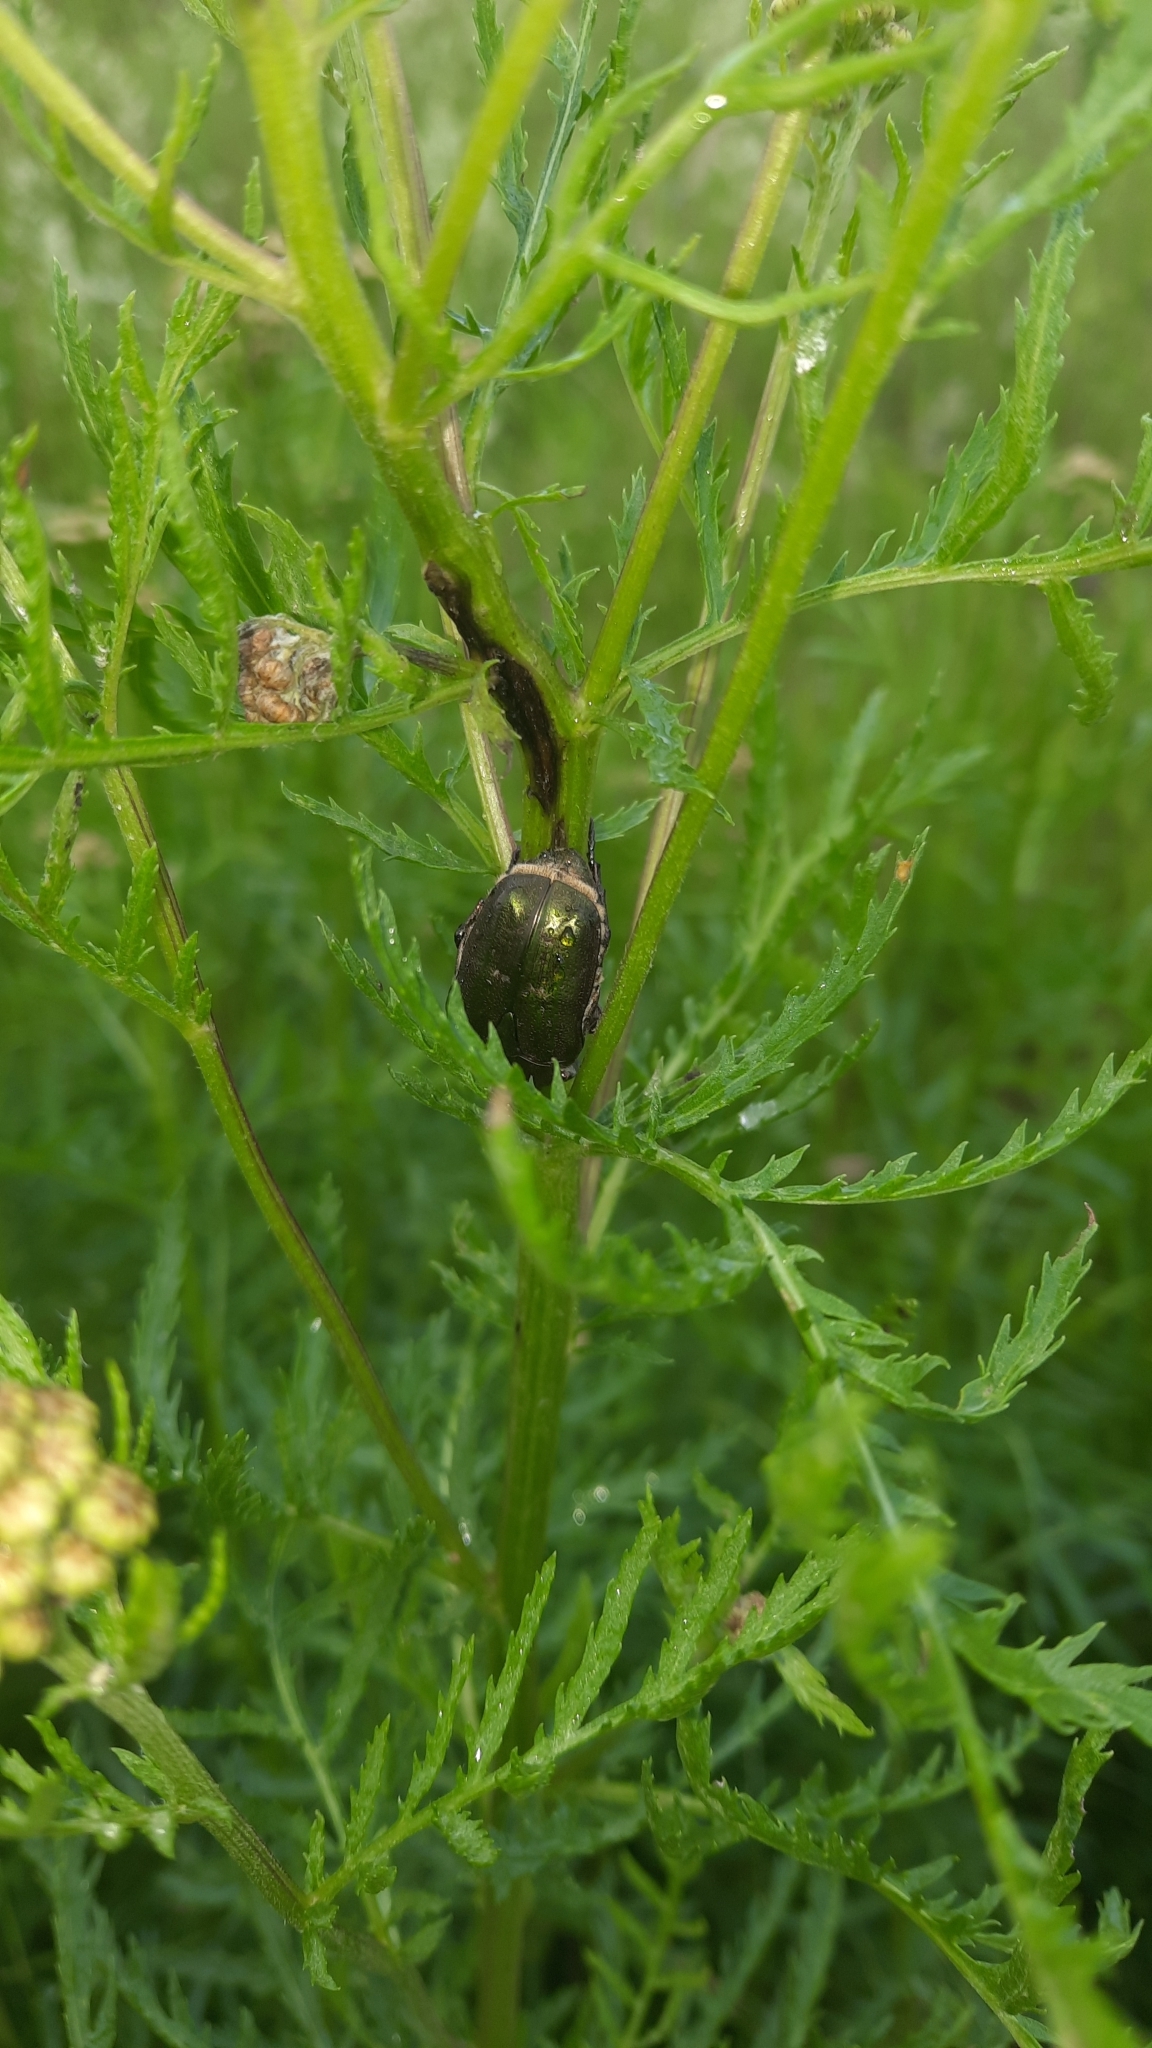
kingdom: Animalia
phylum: Arthropoda
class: Insecta
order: Coleoptera
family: Scarabaeidae
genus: Protaetia
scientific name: Protaetia cuprea
